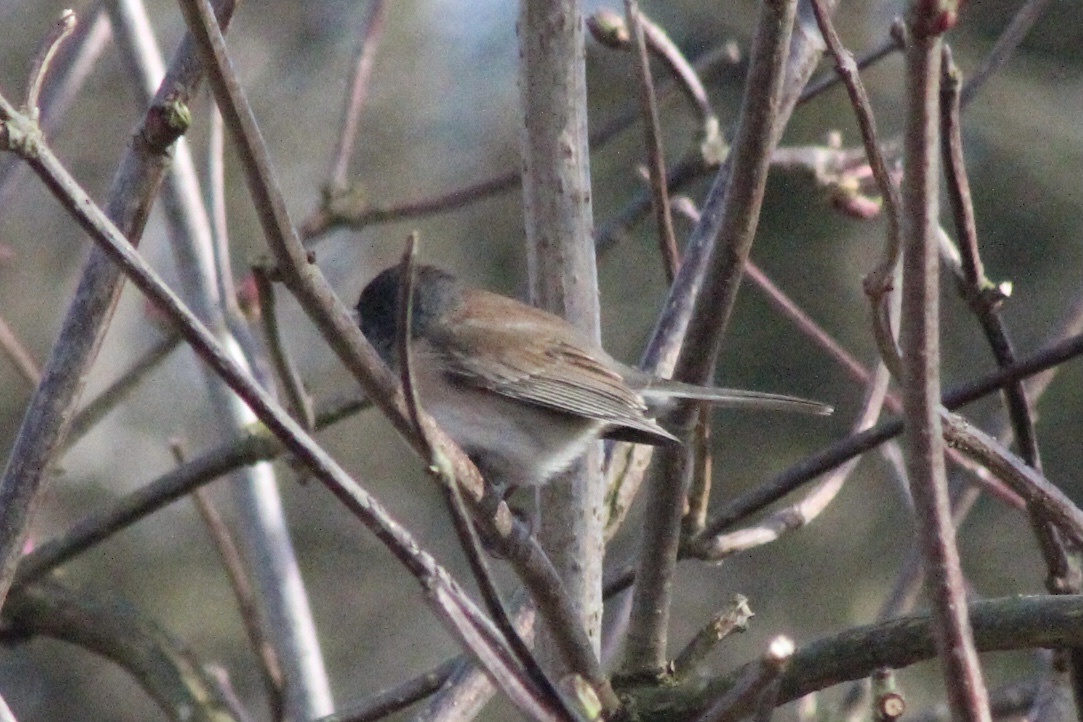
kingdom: Animalia
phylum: Chordata
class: Aves
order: Passeriformes
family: Passerellidae
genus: Junco
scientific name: Junco hyemalis
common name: Dark-eyed junco
